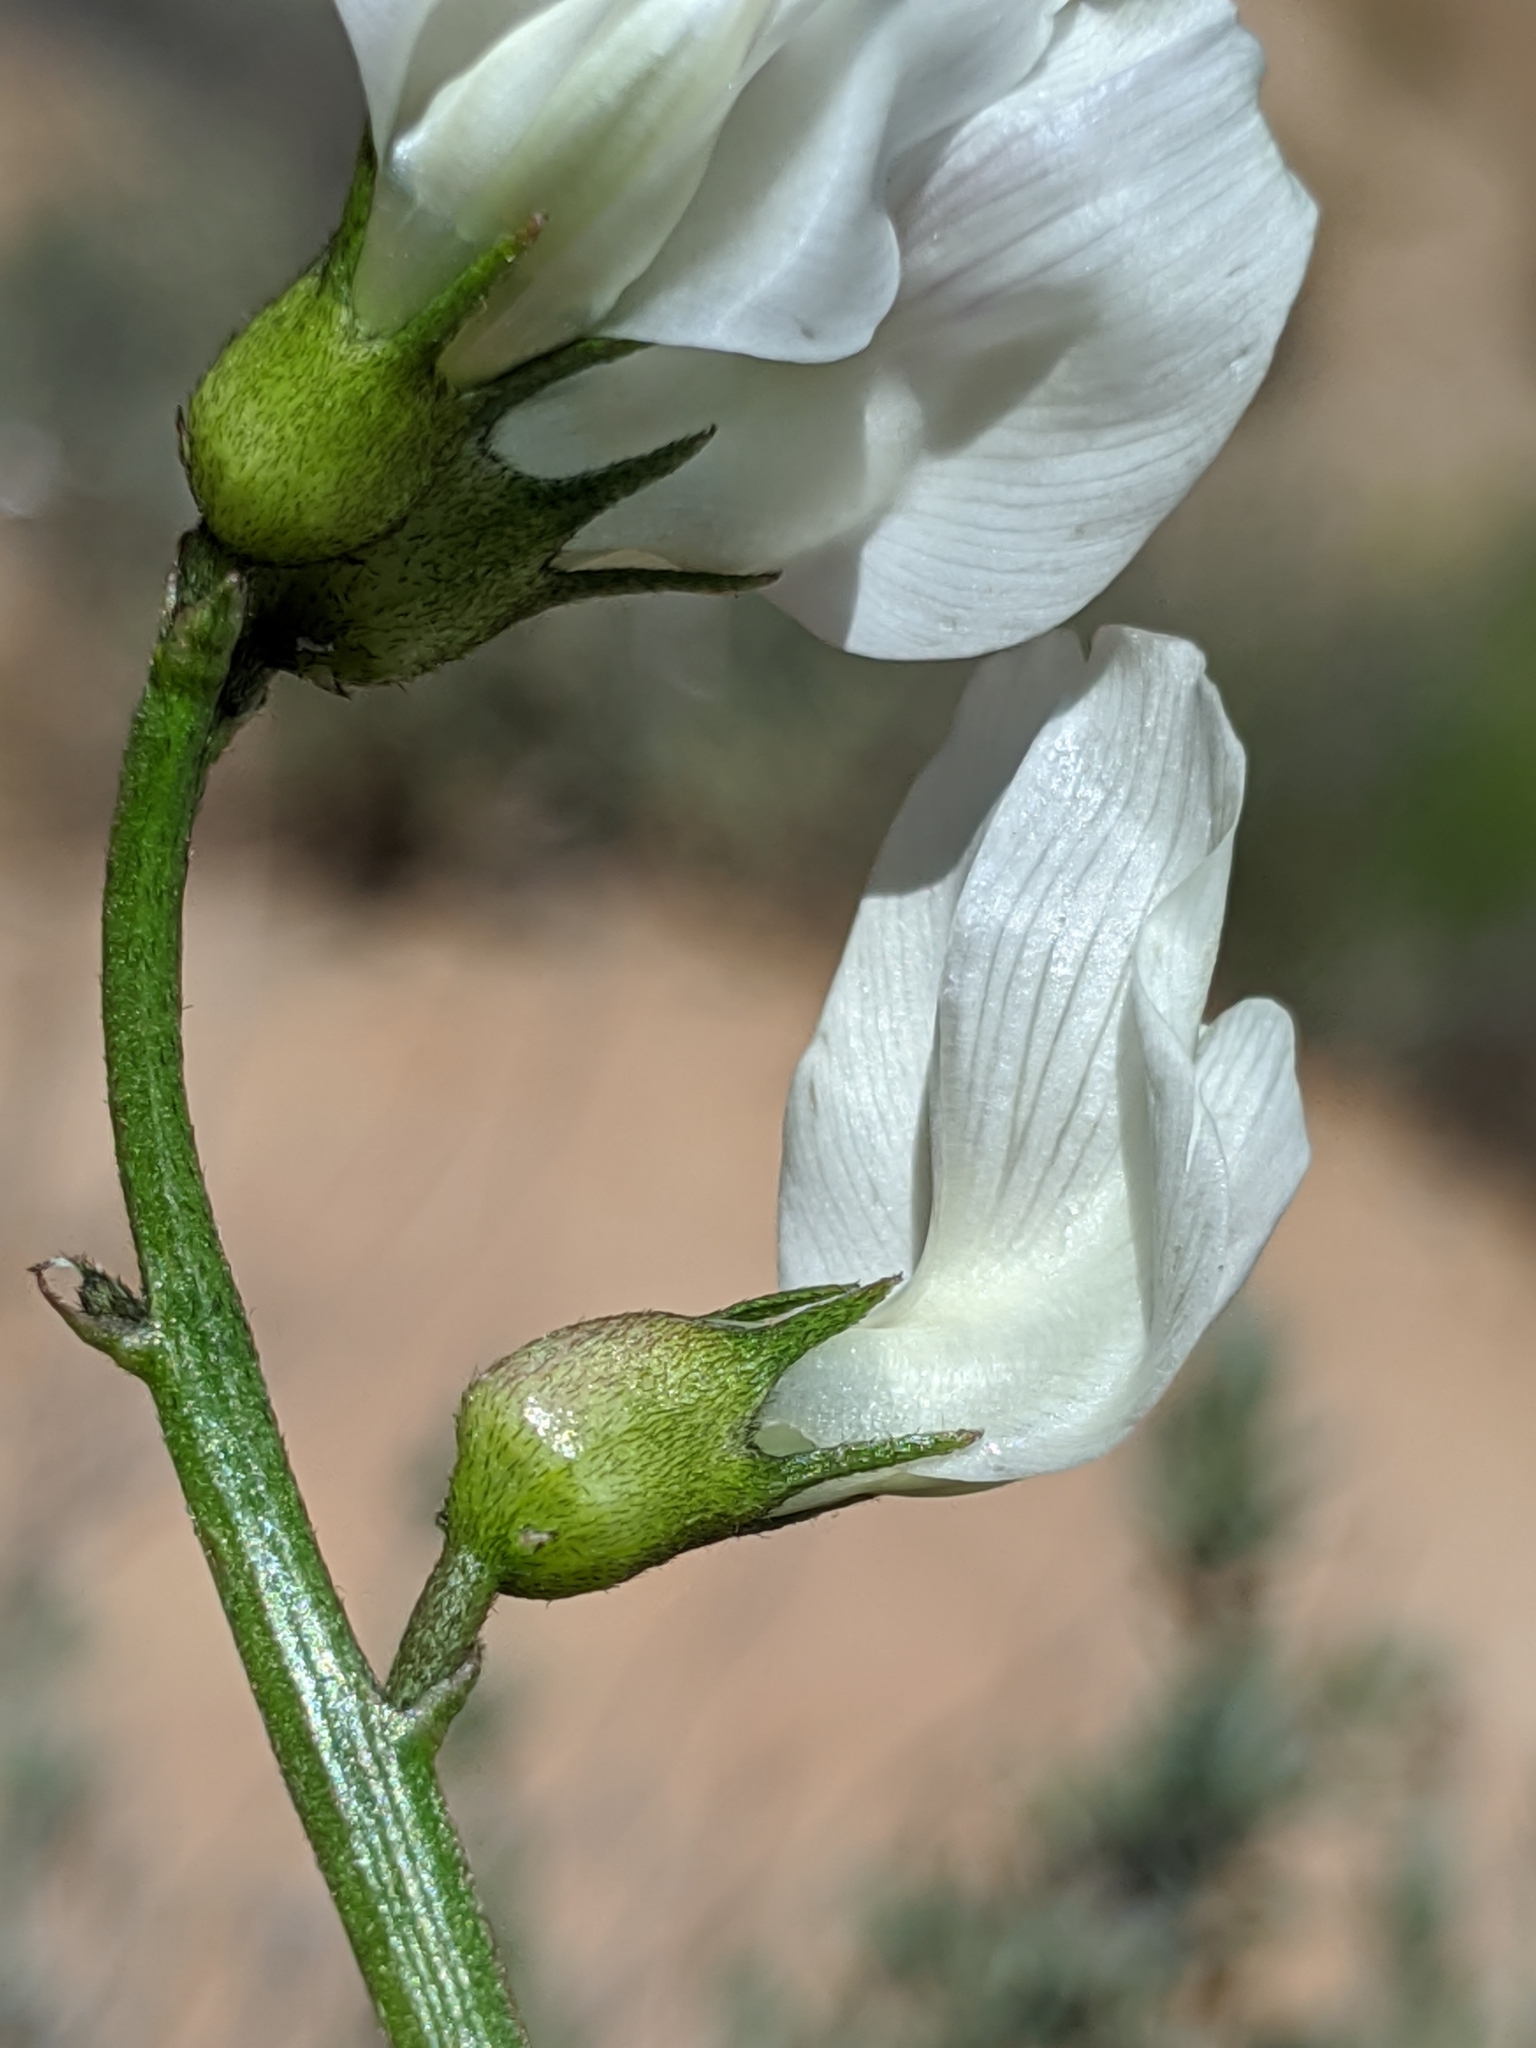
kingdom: Plantae
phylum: Tracheophyta
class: Magnoliopsida
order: Fabales
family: Fabaceae
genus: Astragalus
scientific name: Astragalus pachypus
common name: Thick-pod milkvetch
